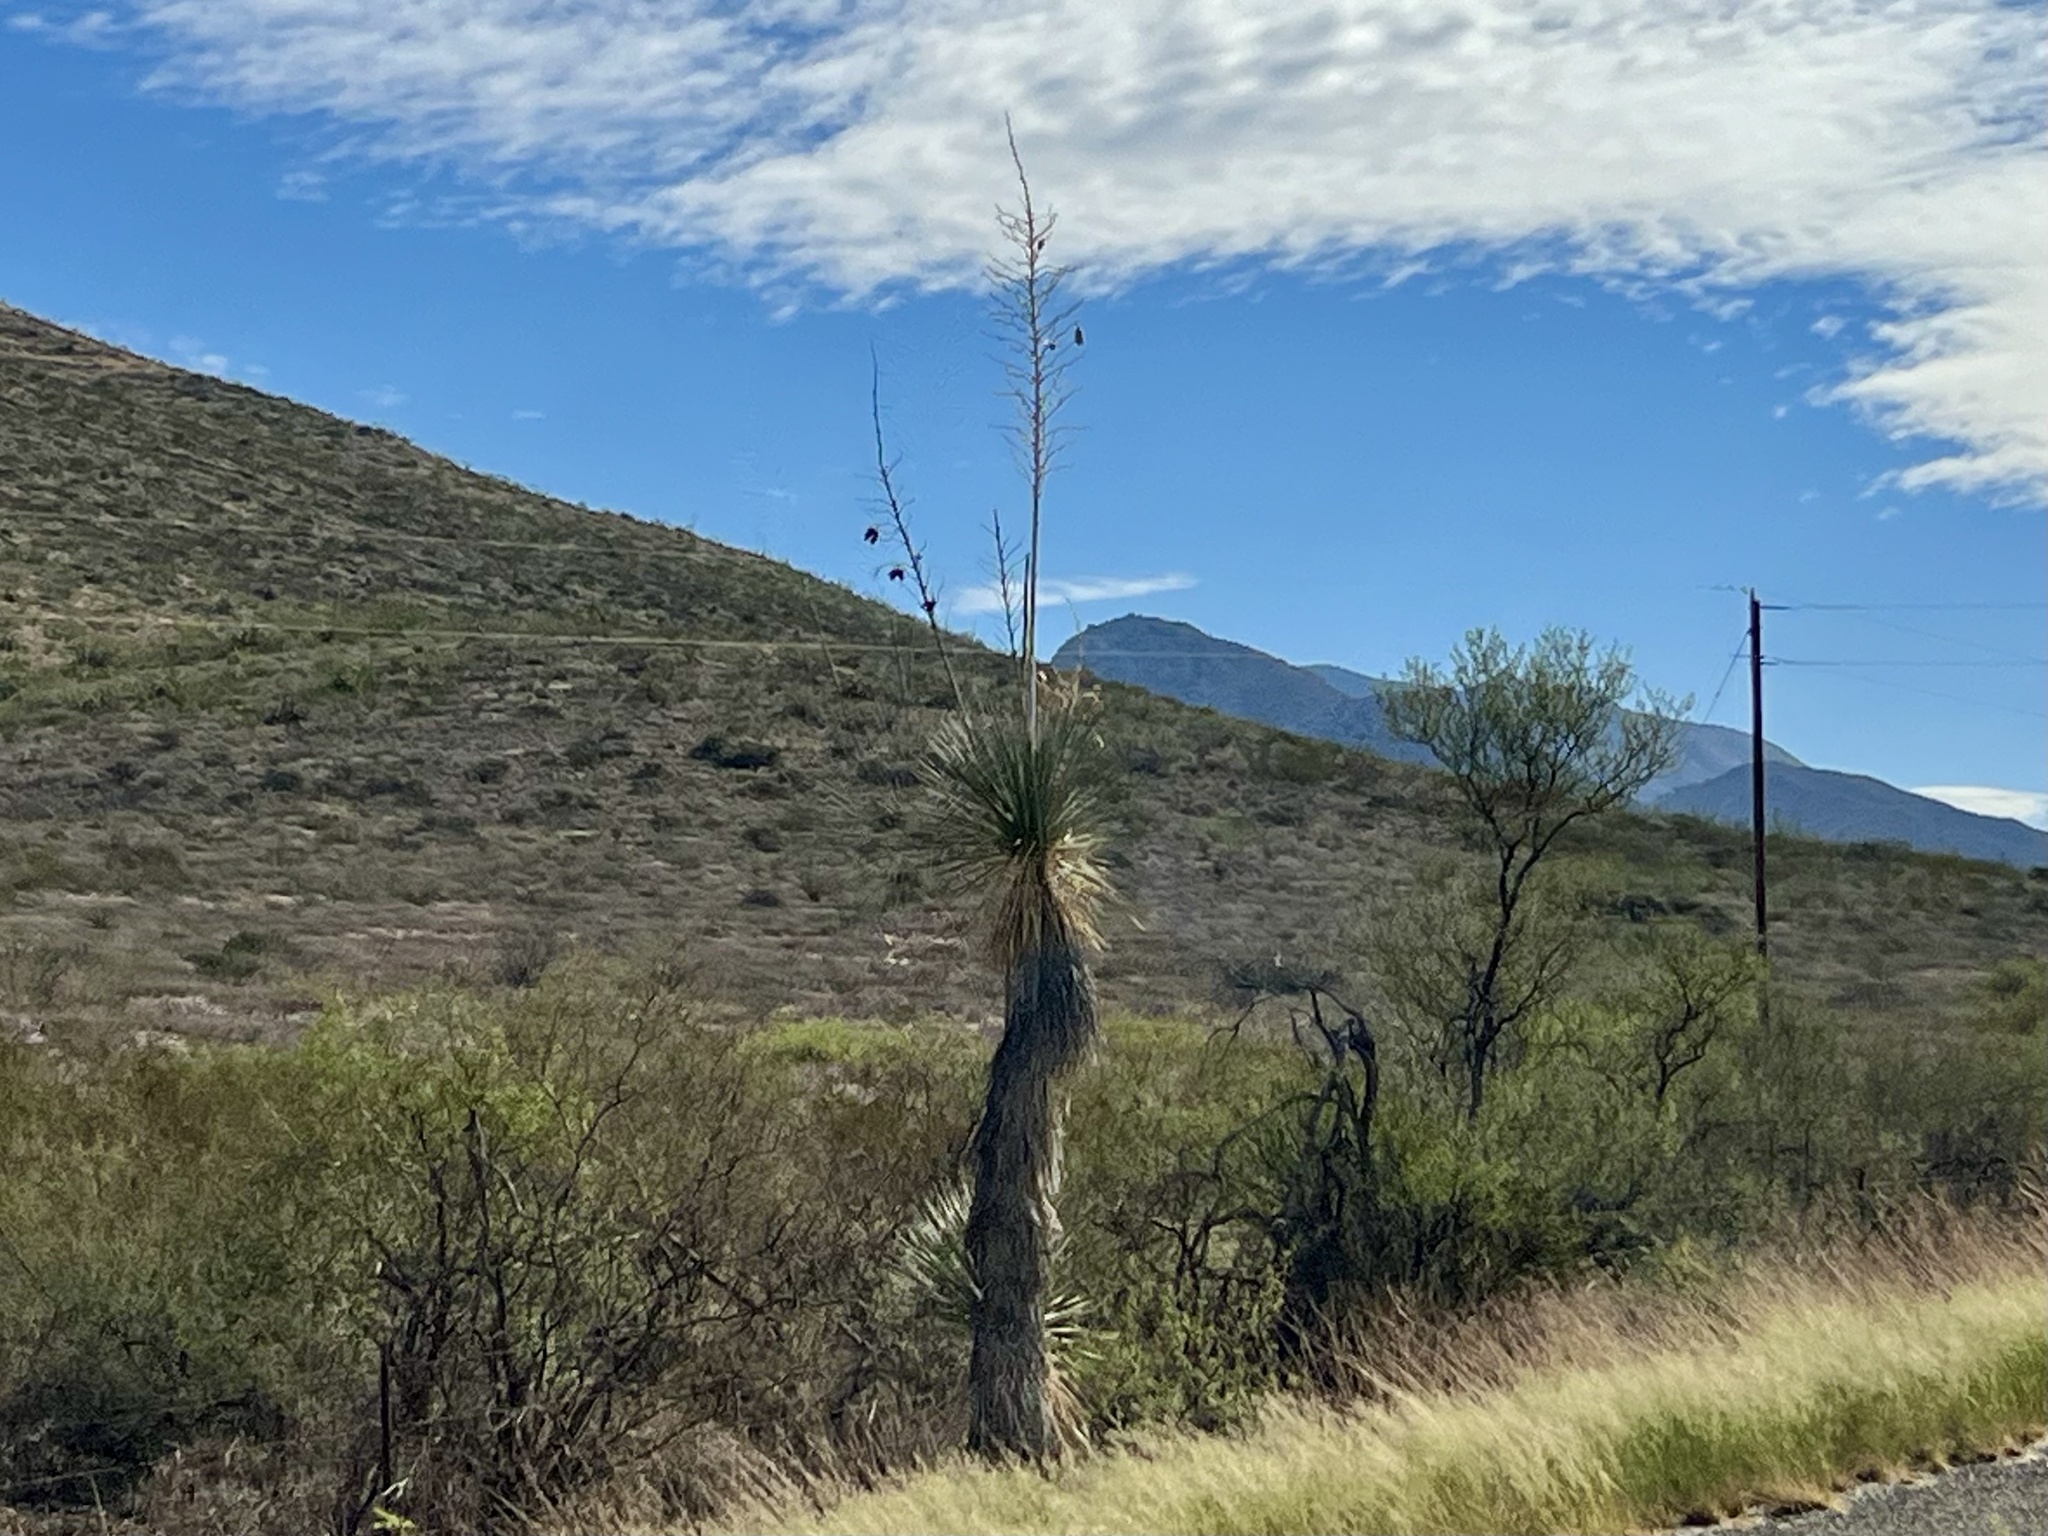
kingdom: Plantae
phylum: Tracheophyta
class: Liliopsida
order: Asparagales
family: Asparagaceae
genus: Yucca
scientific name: Yucca elata
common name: Palmella
